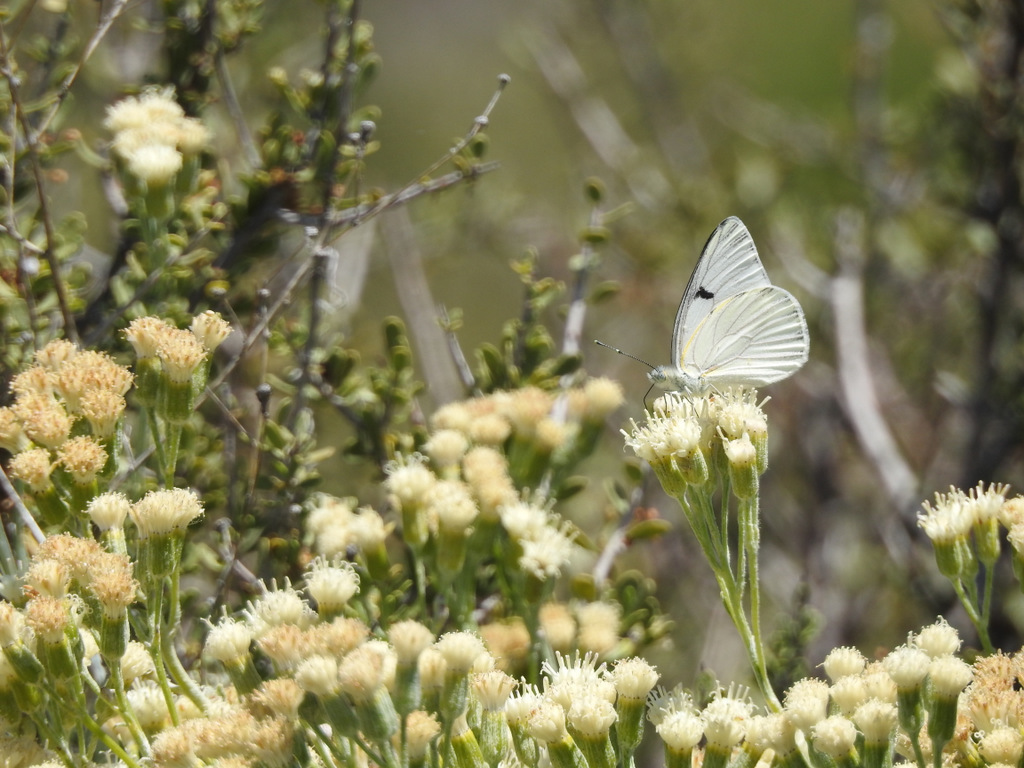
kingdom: Animalia
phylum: Arthropoda
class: Insecta
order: Lepidoptera
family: Pieridae
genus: Tatochila
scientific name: Tatochila mercedis
